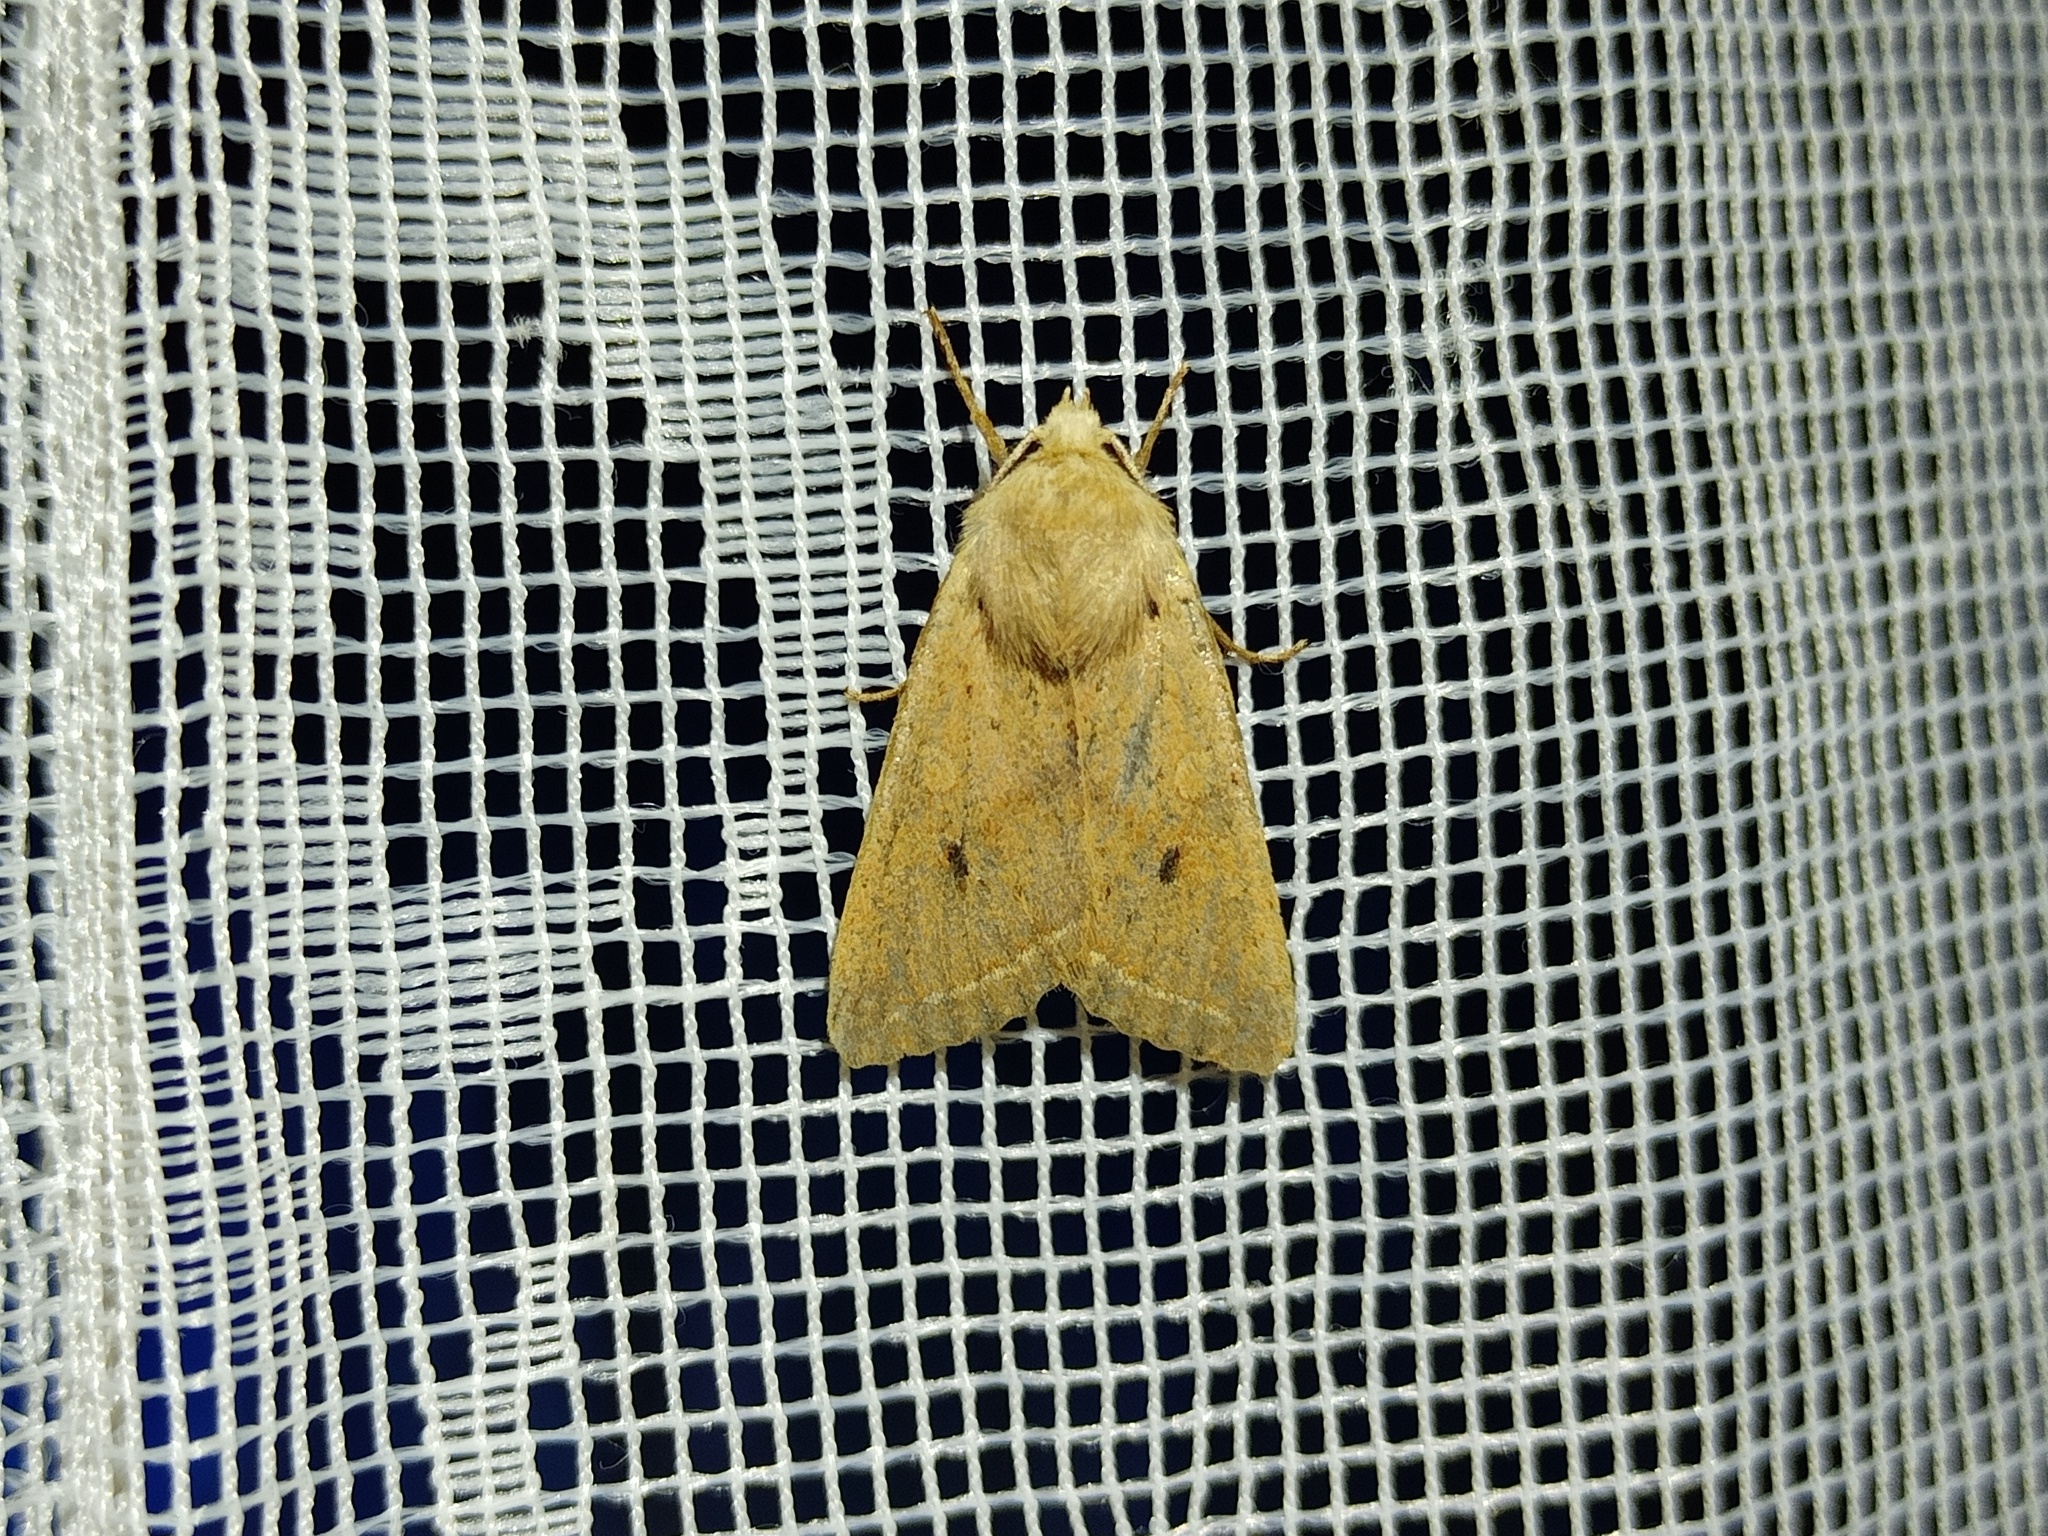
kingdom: Animalia
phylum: Arthropoda
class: Insecta
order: Lepidoptera
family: Noctuidae
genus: Agrochola
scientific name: Agrochola macilenta
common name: Yellow-line quaker
